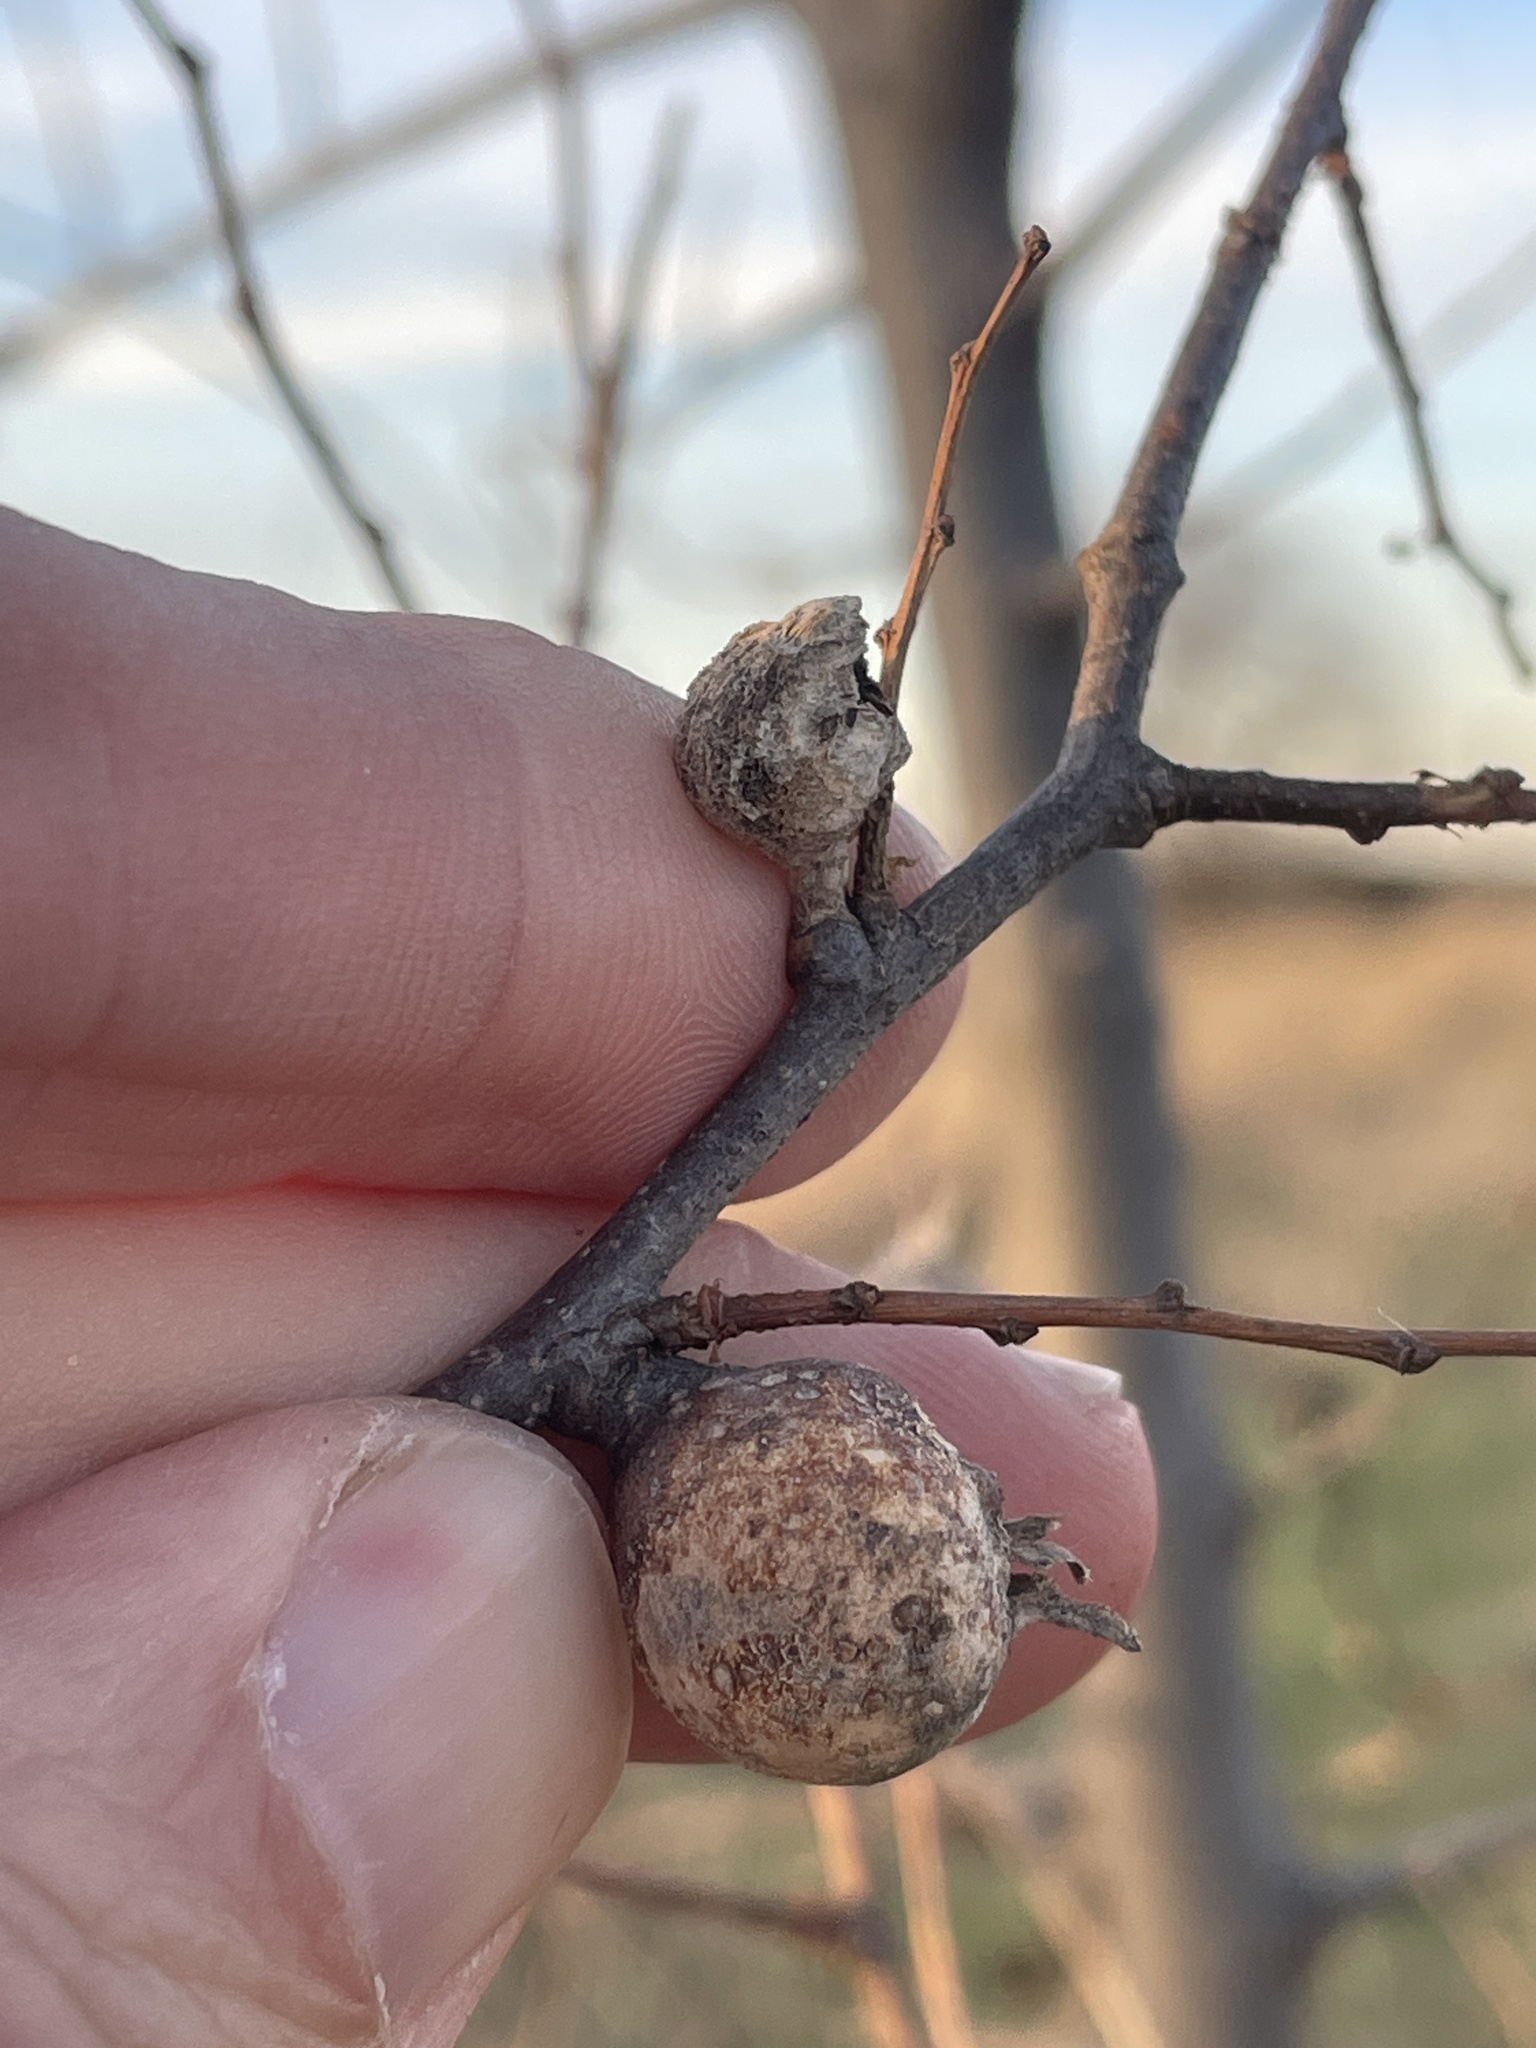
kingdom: Animalia
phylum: Arthropoda
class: Insecta
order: Hemiptera
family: Aphalaridae
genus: Pachypsylla
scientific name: Pachypsylla venusta
